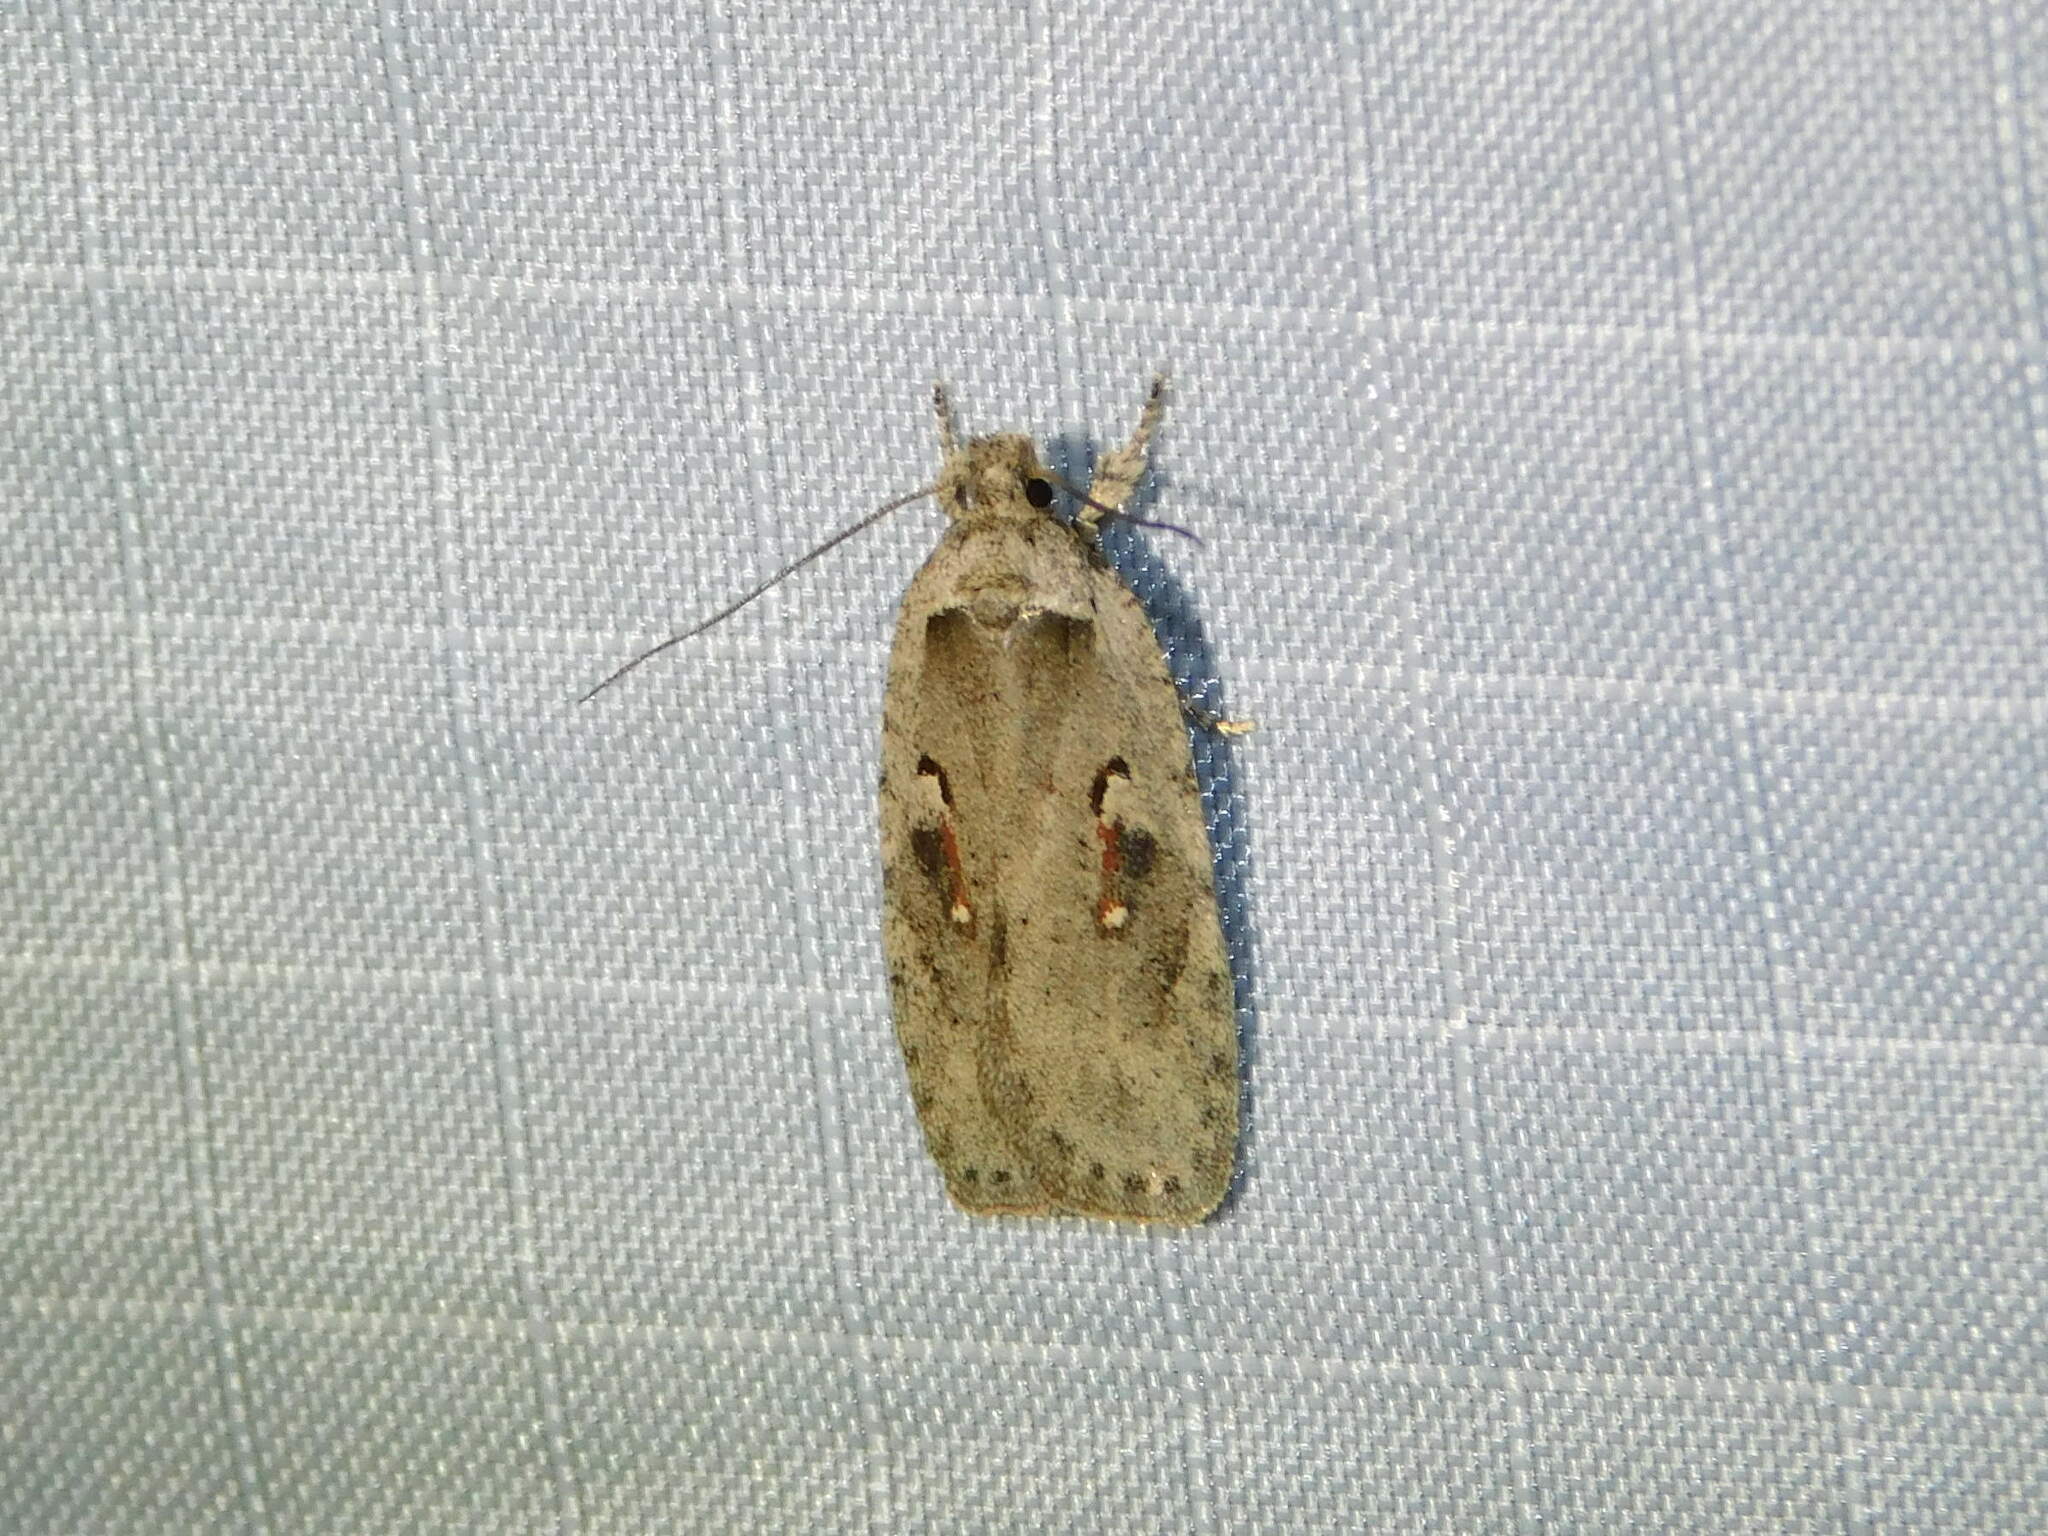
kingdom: Animalia
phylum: Arthropoda
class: Insecta
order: Lepidoptera
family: Depressariidae
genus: Agonopterix
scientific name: Agonopterix ocellana
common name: Red-letter flat-body
